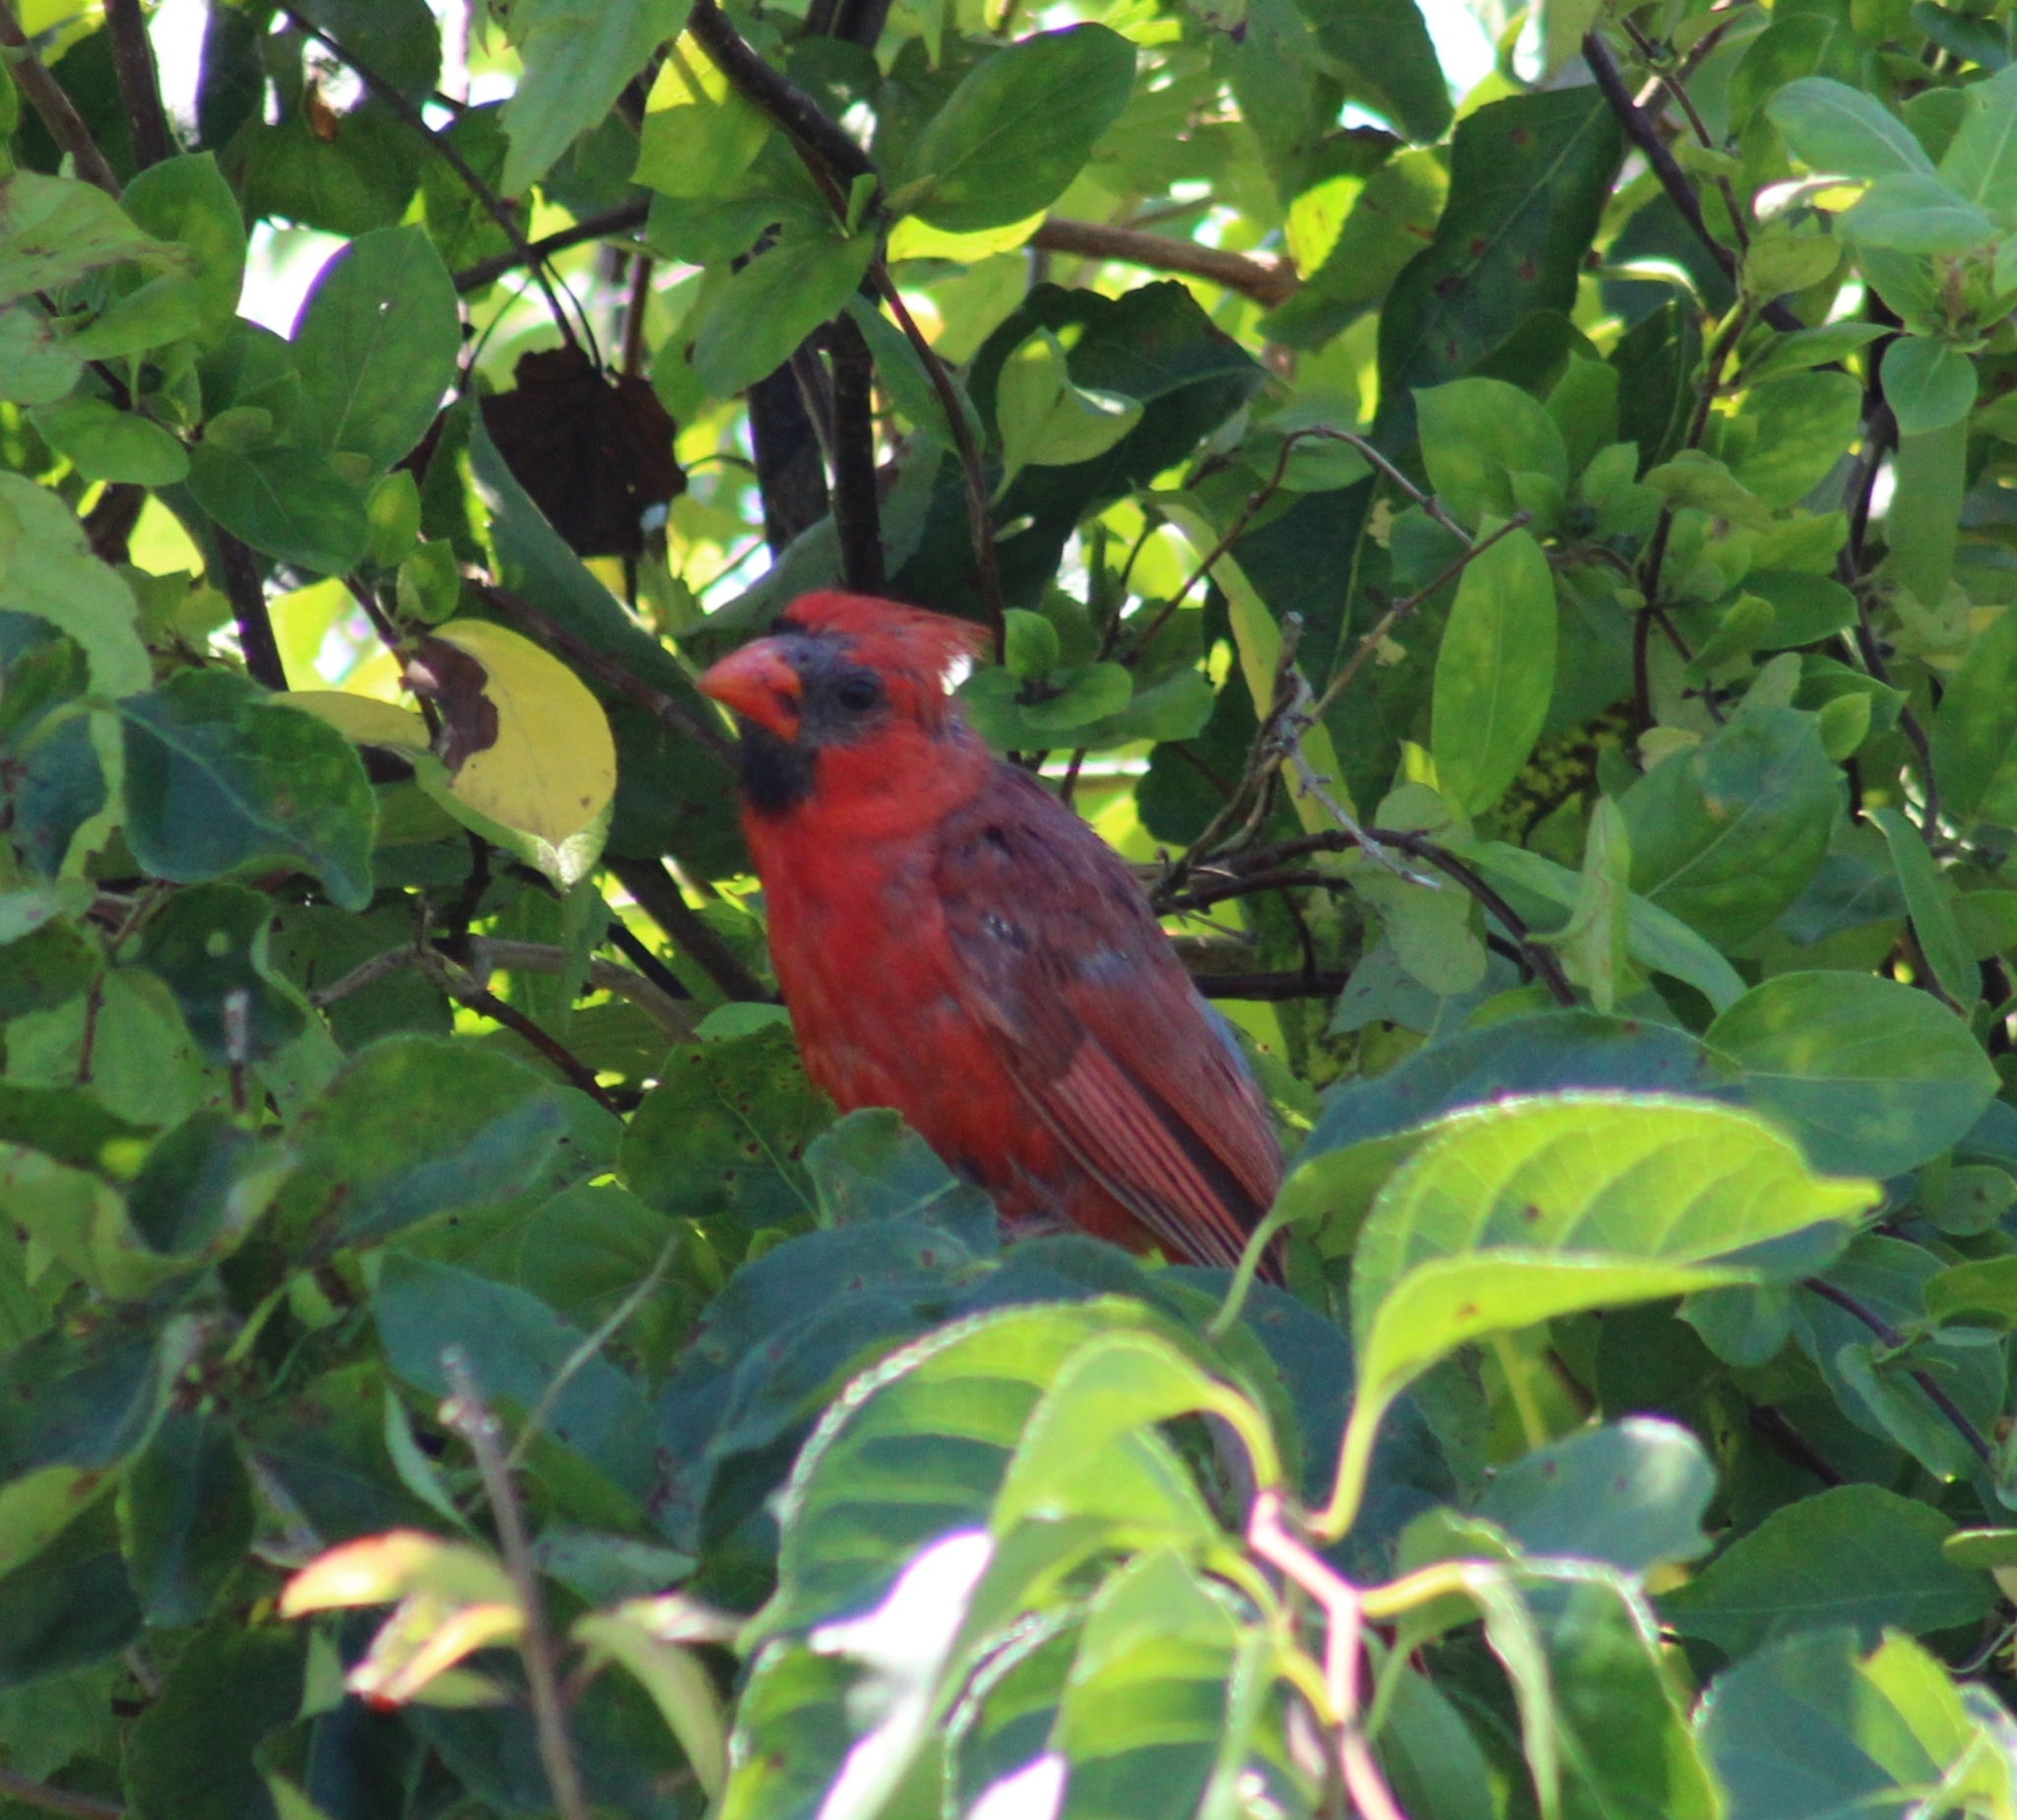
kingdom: Animalia
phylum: Chordata
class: Aves
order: Passeriformes
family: Cardinalidae
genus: Cardinalis
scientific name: Cardinalis cardinalis
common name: Northern cardinal
